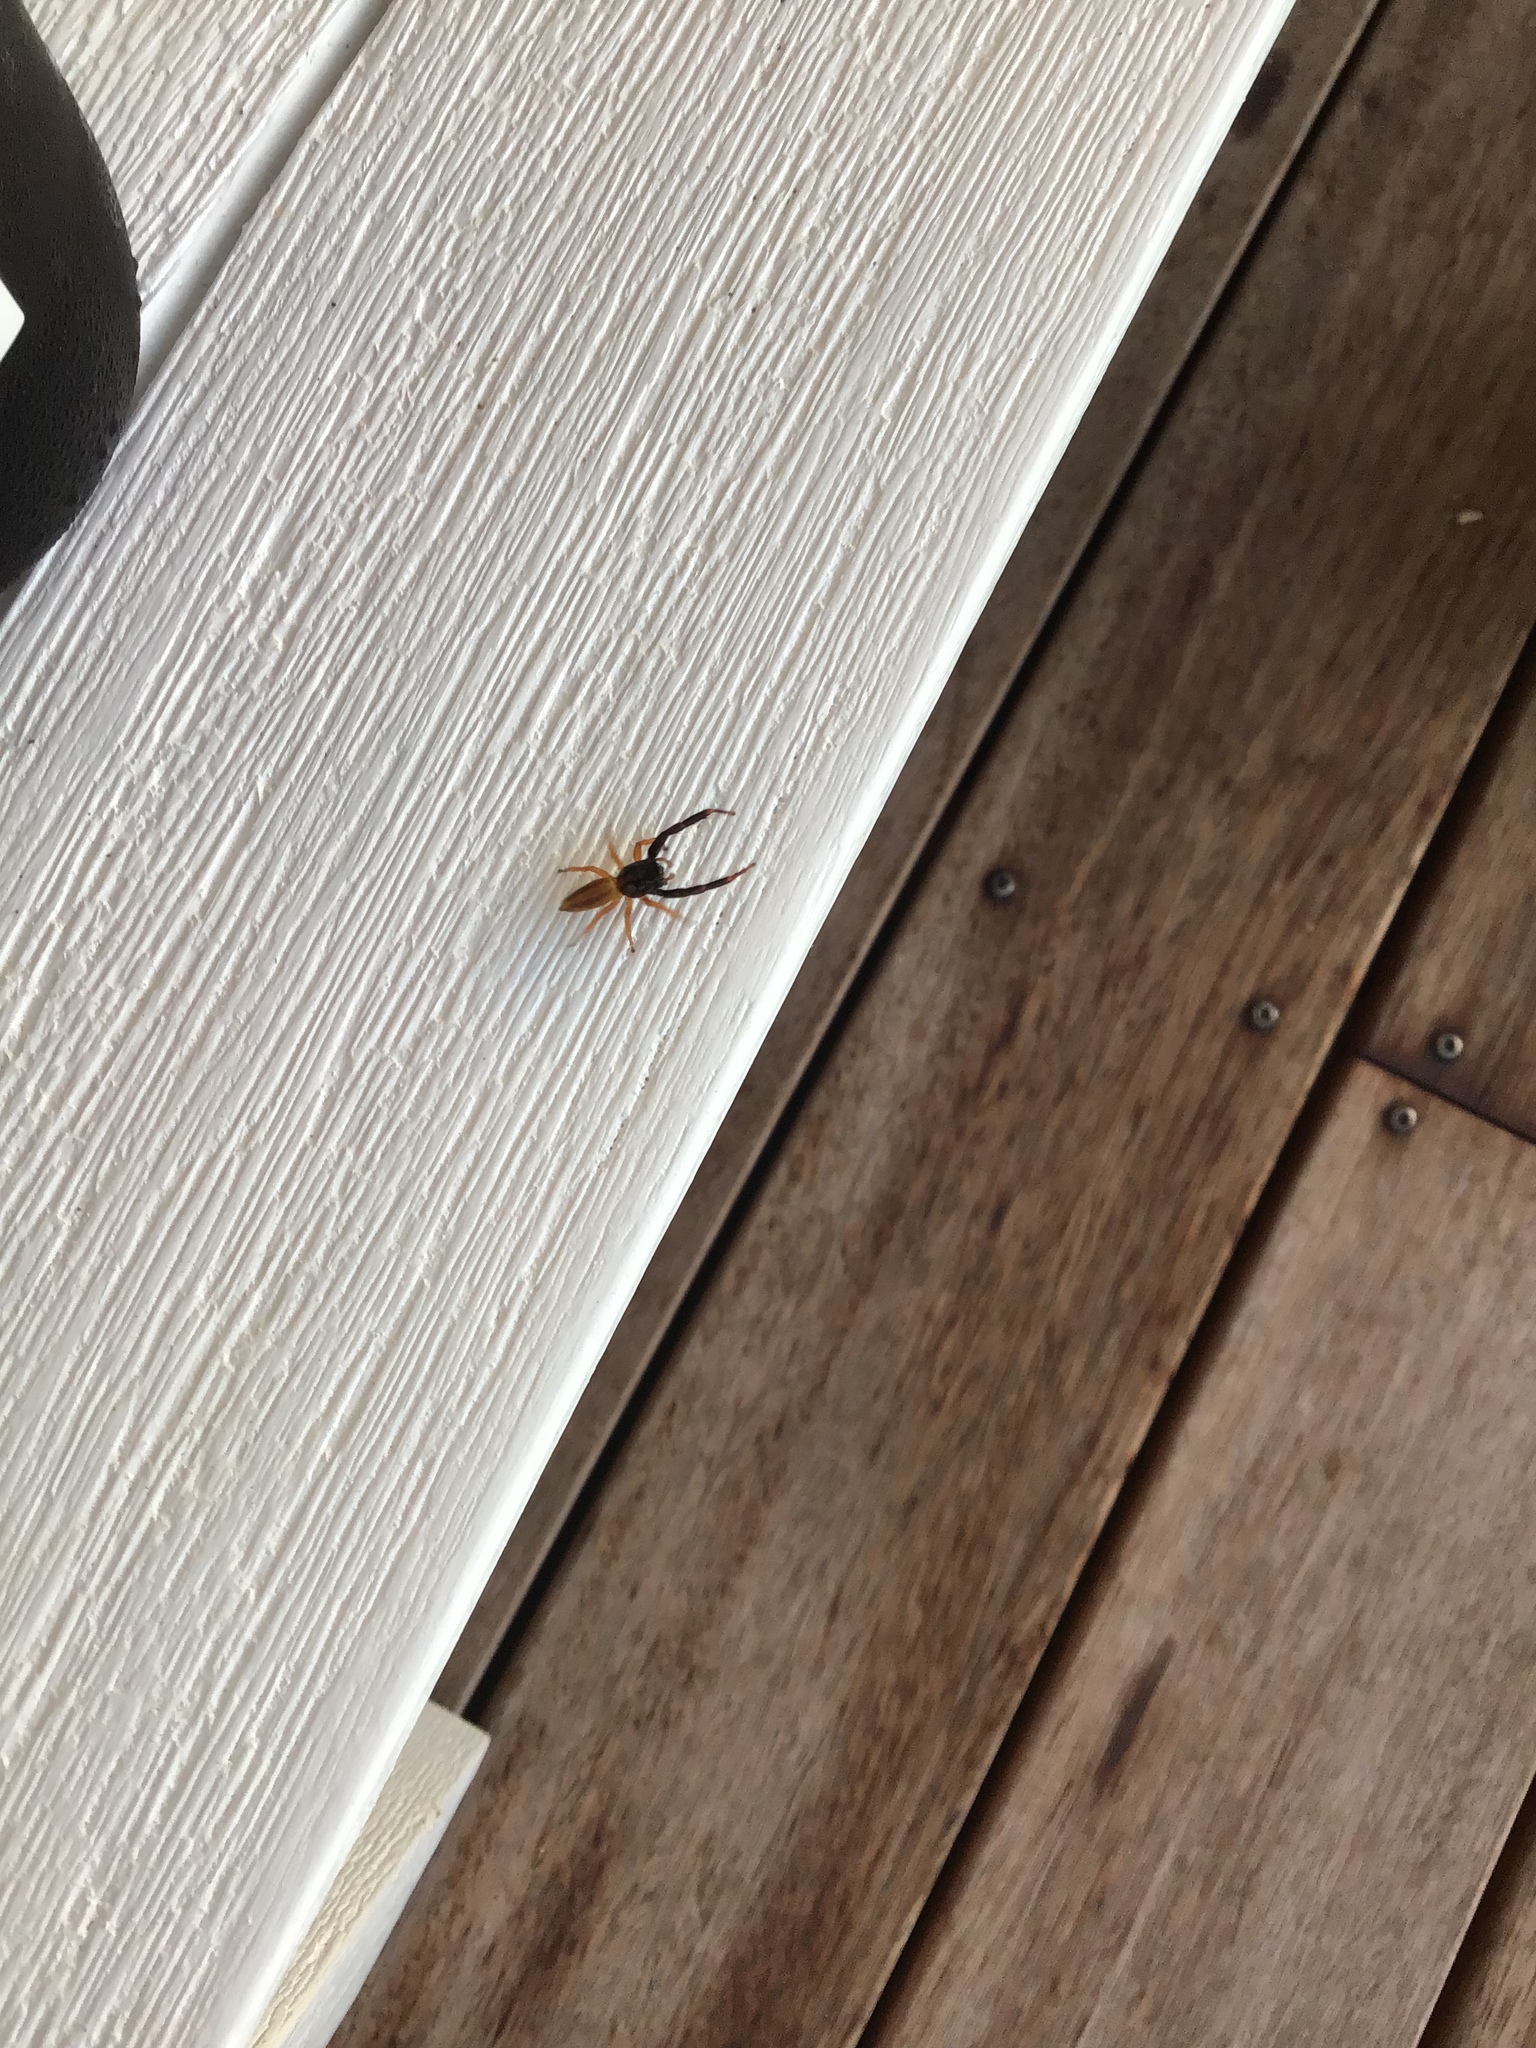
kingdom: Animalia
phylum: Arthropoda
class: Arachnida
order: Araneae
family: Salticidae
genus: Trite
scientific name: Trite planiceps
